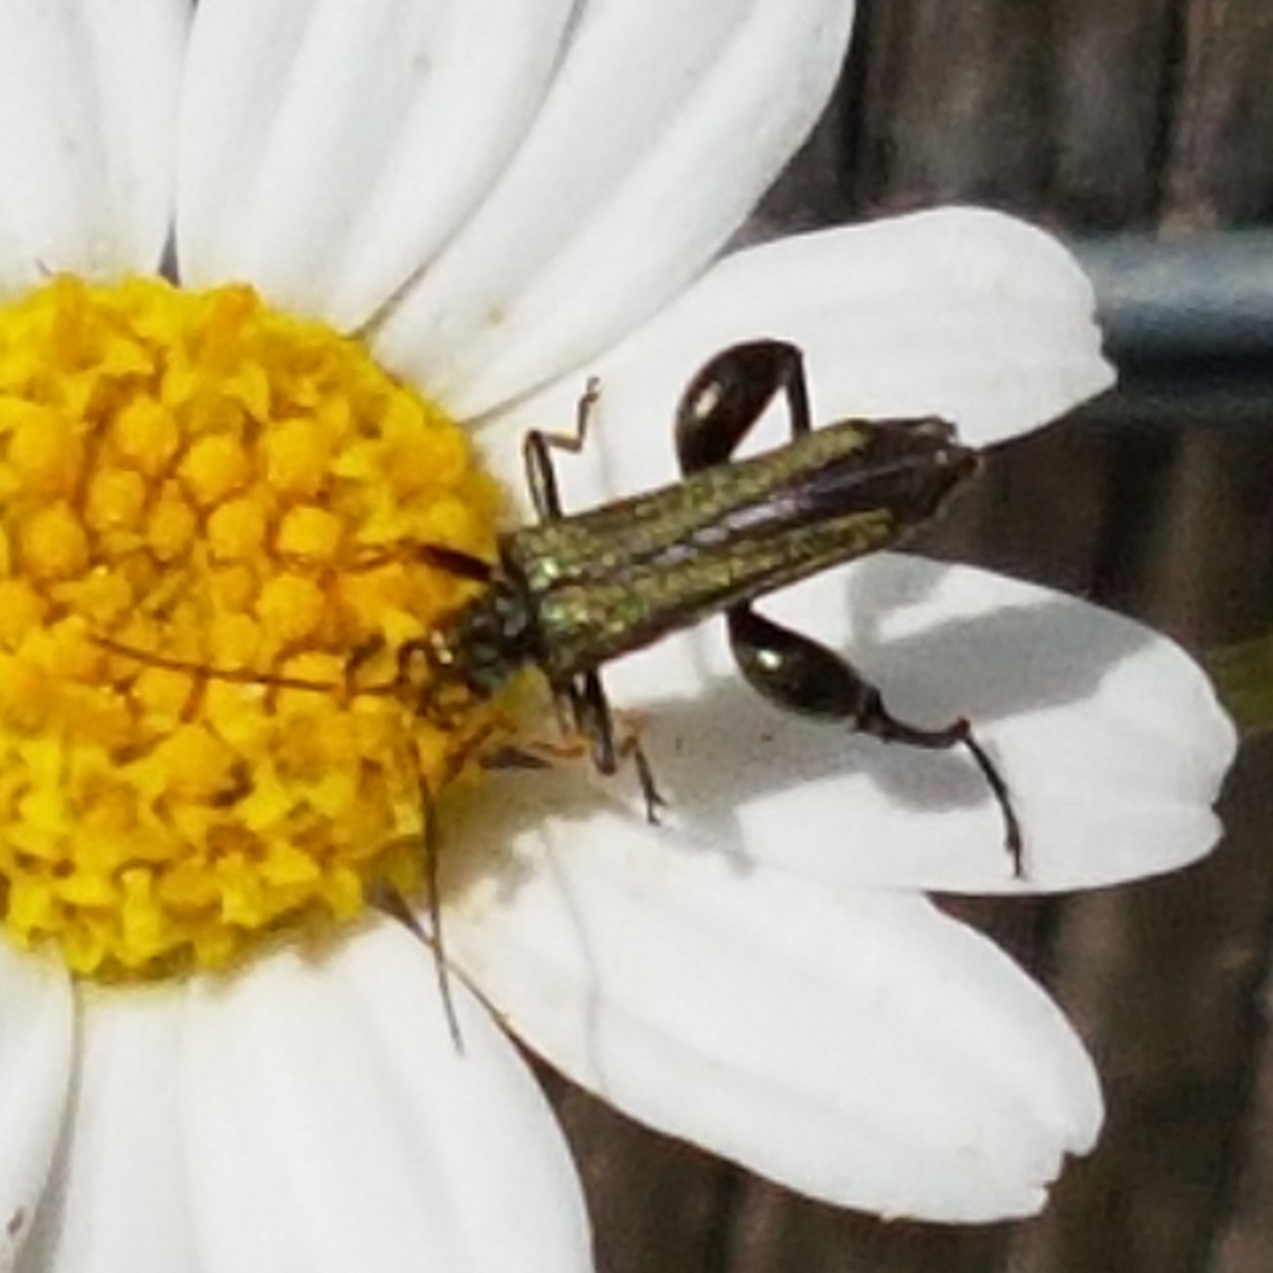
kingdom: Animalia
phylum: Arthropoda
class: Insecta
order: Coleoptera
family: Oedemeridae
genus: Oedemera
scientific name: Oedemera flavipes
